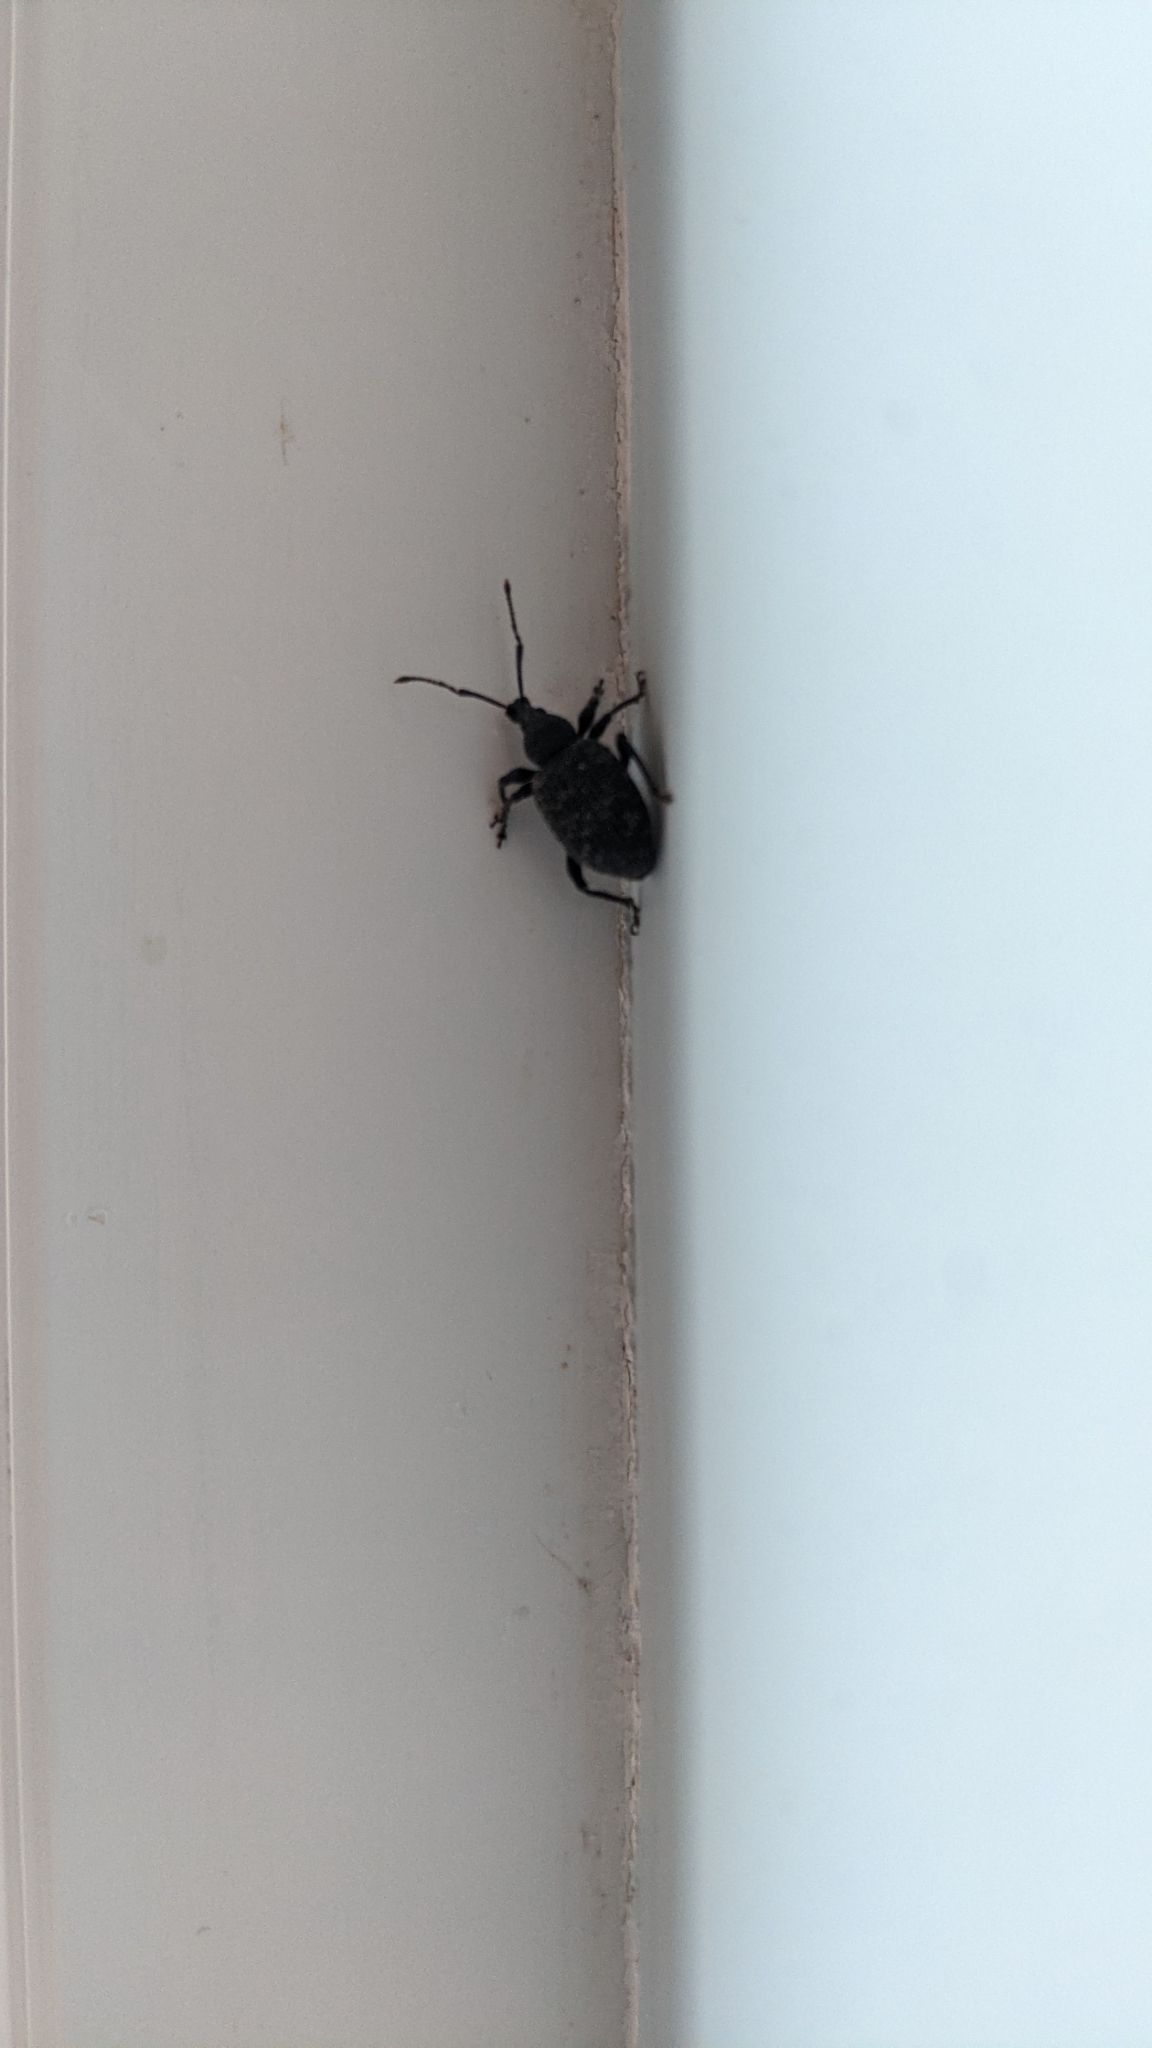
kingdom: Animalia
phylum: Arthropoda
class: Insecta
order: Coleoptera
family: Curculionidae
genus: Otiorhynchus
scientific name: Otiorhynchus sulcatus
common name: Black vine weevil
